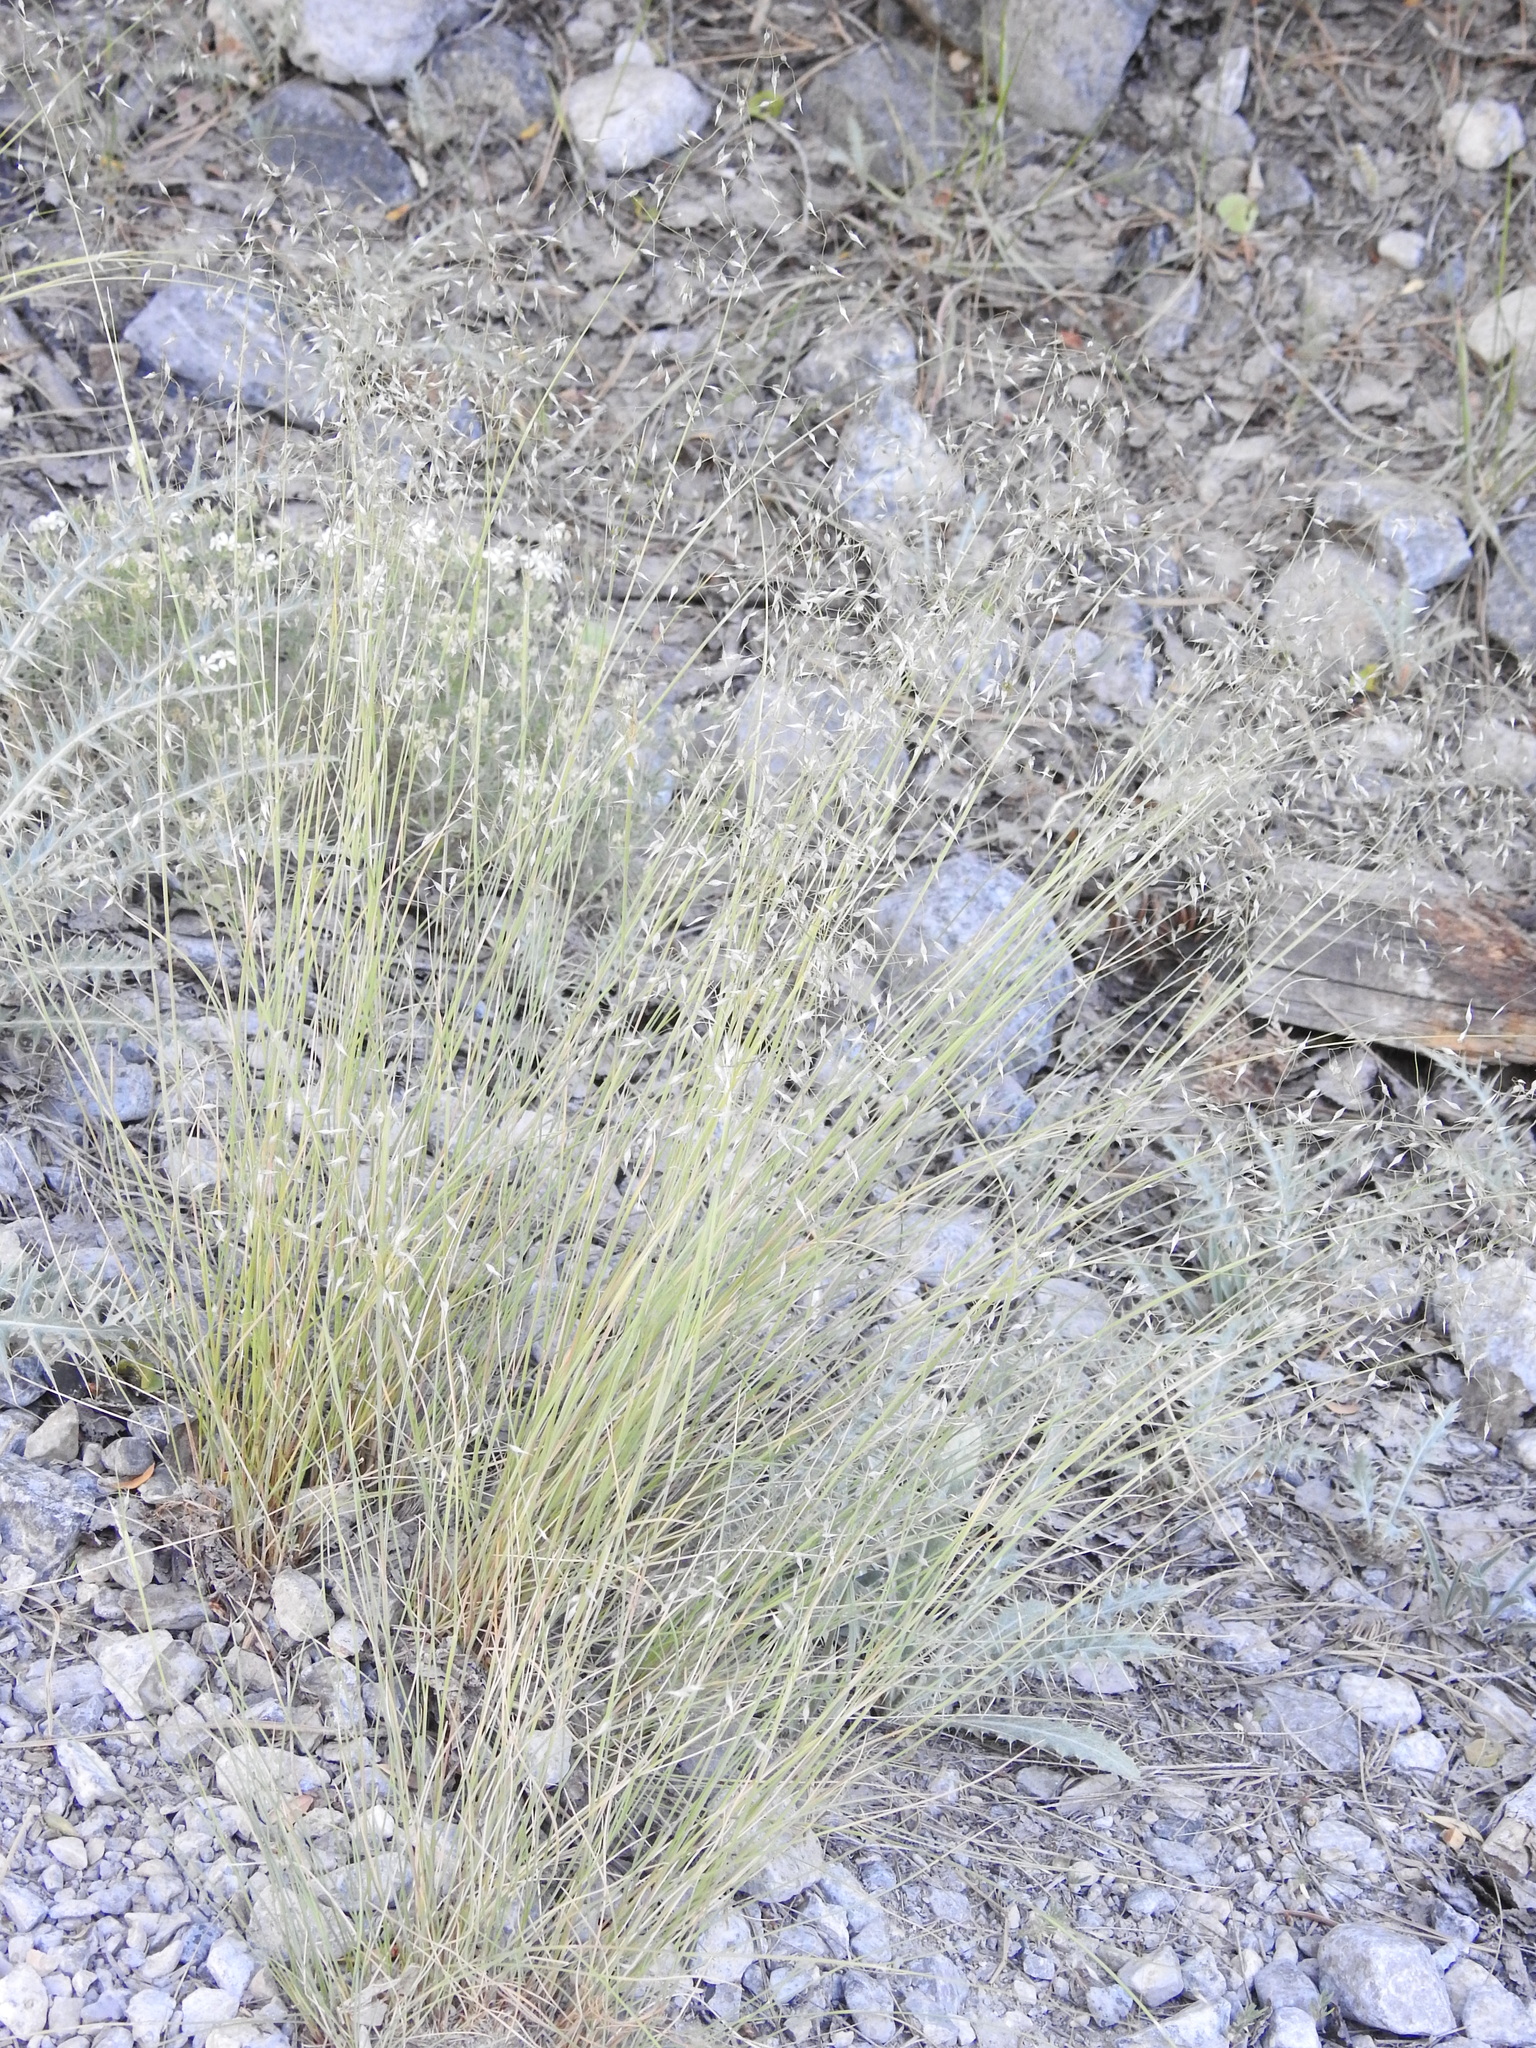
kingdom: Plantae
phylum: Tracheophyta
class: Liliopsida
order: Poales
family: Poaceae
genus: Eriocoma
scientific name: Eriocoma hymenoides
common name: Indian mountain ricegrass
